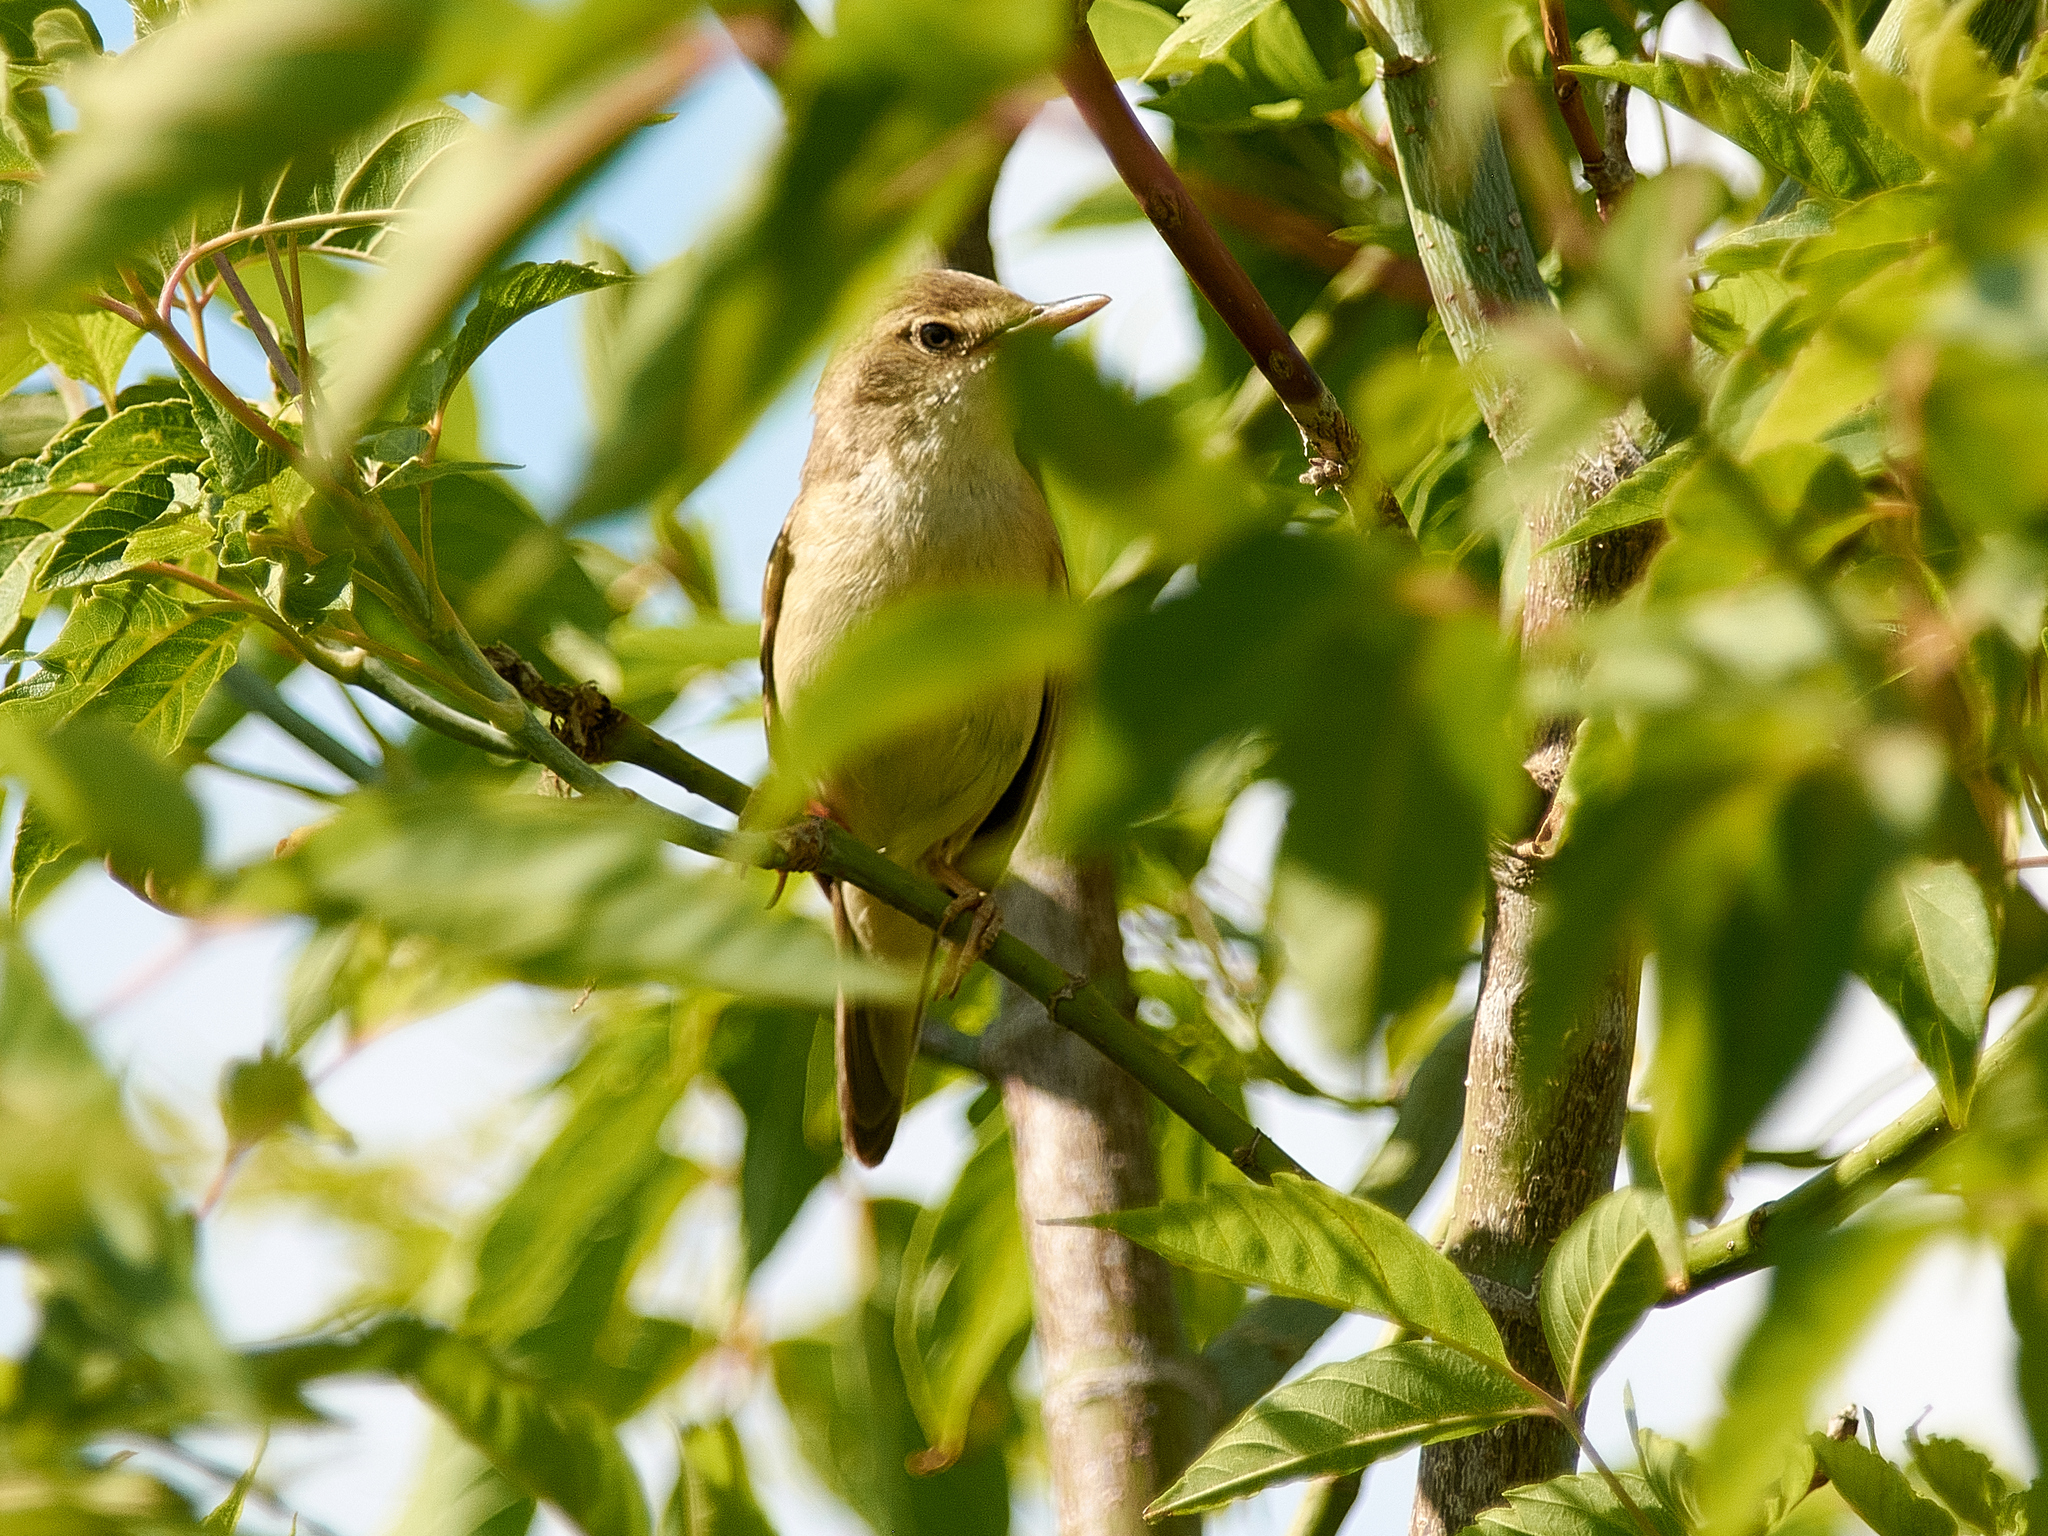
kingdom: Animalia
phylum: Chordata
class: Aves
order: Passeriformes
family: Acrocephalidae
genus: Acrocephalus
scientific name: Acrocephalus palustris
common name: Marsh warbler
